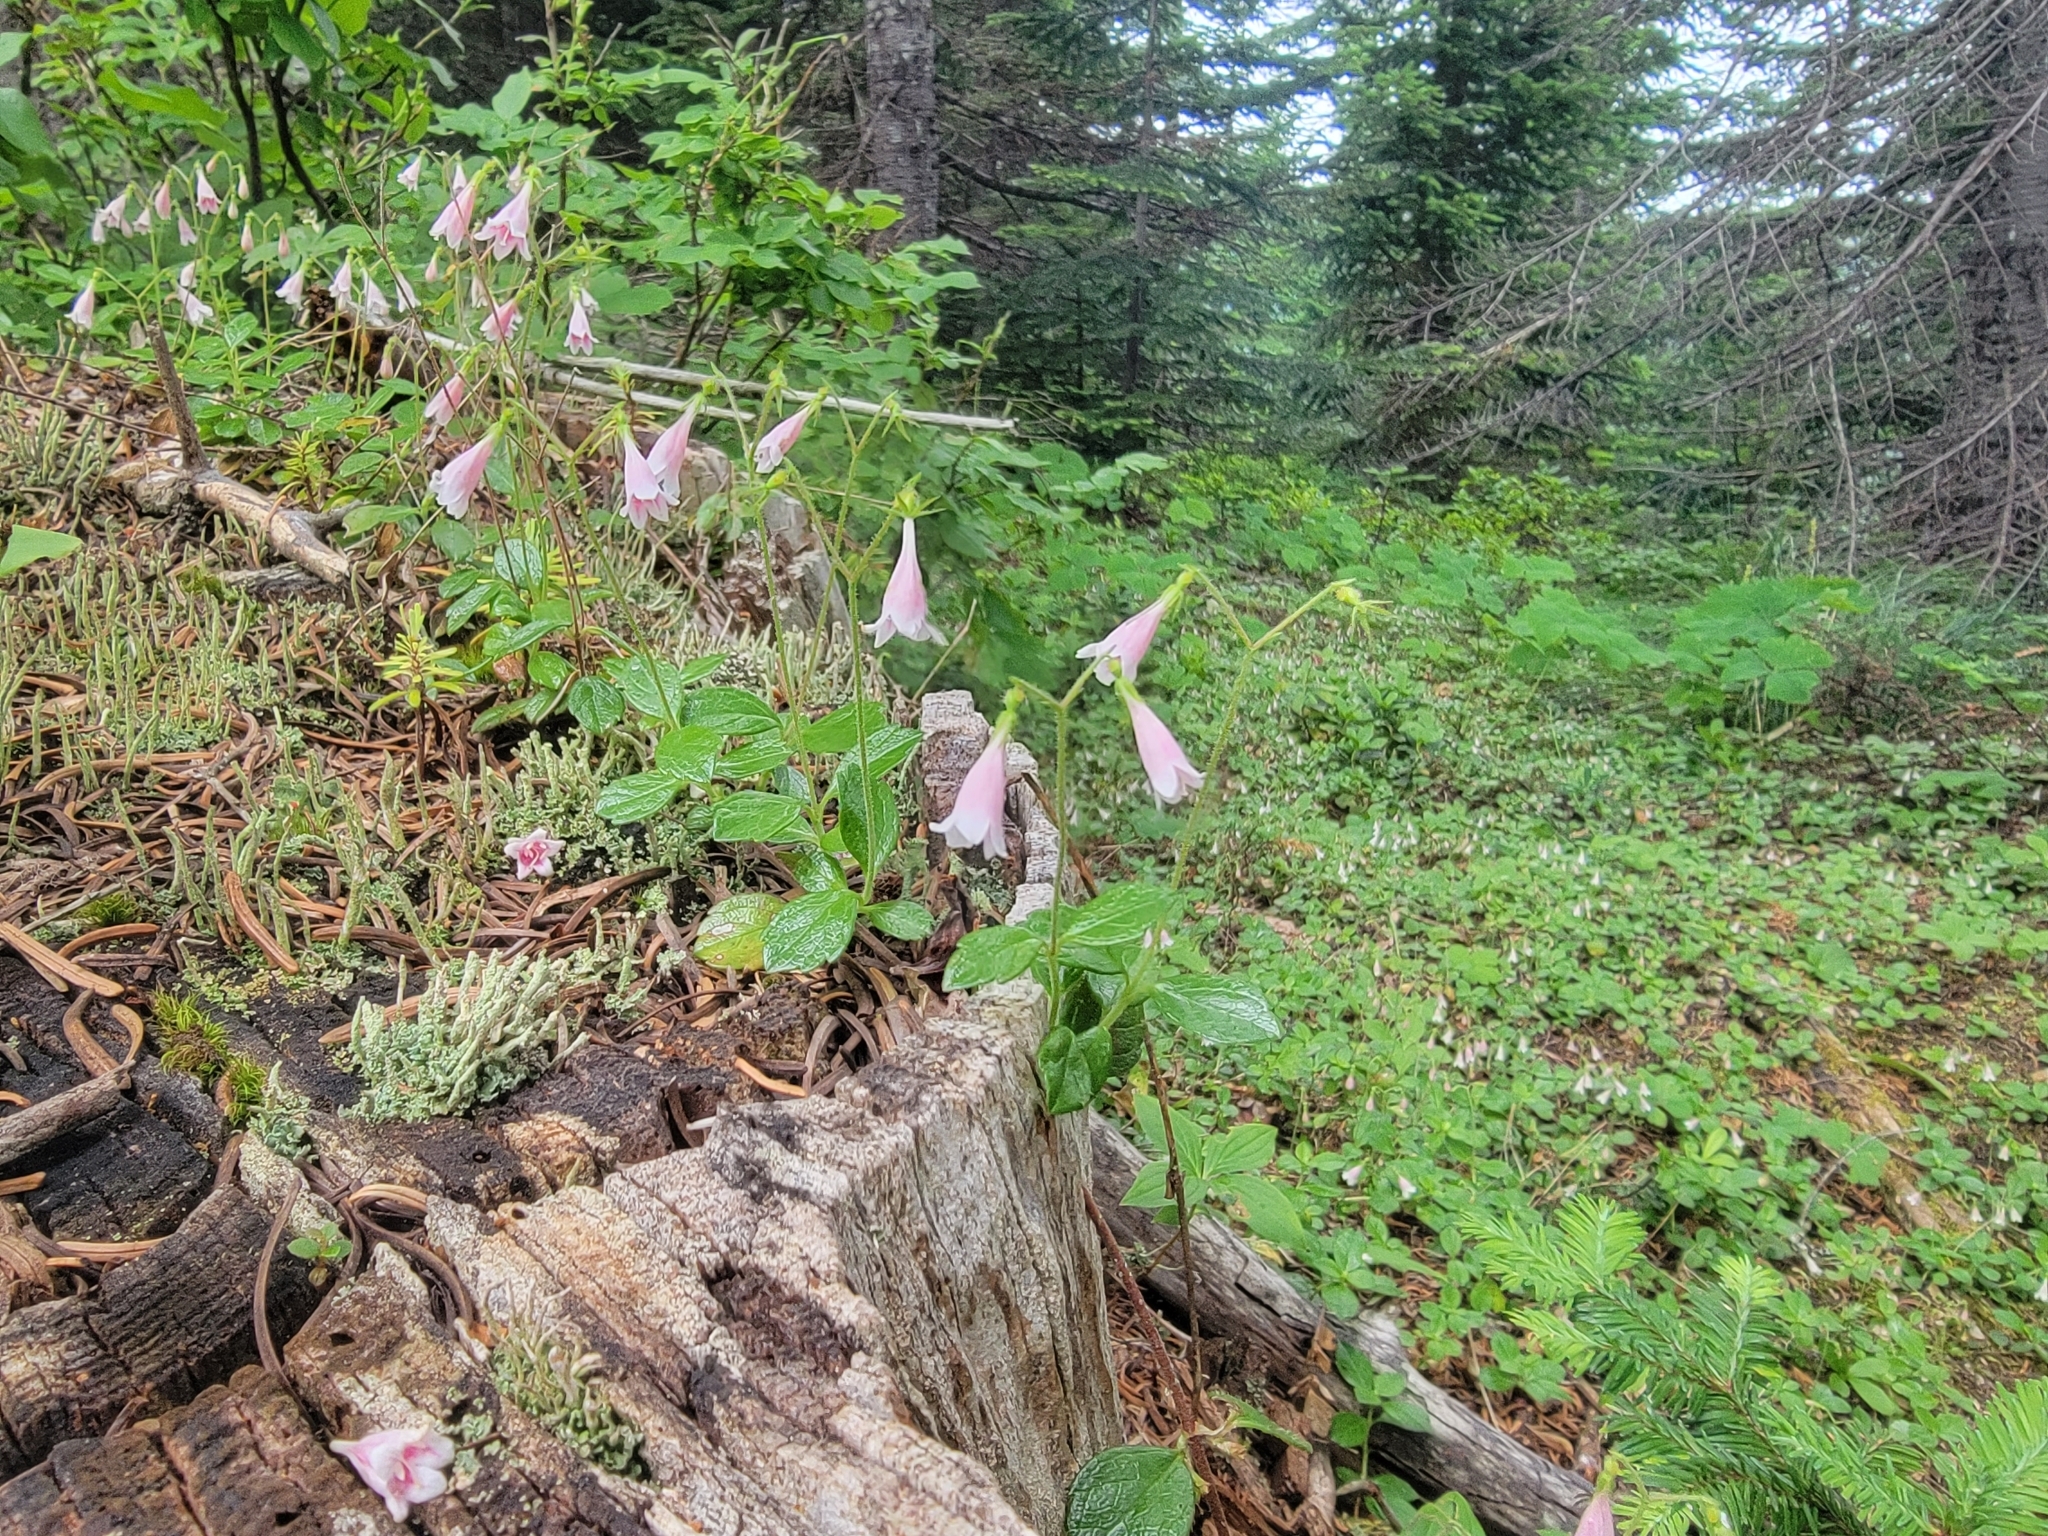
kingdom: Plantae
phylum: Tracheophyta
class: Magnoliopsida
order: Dipsacales
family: Caprifoliaceae
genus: Linnaea
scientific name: Linnaea borealis
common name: Twinflower
